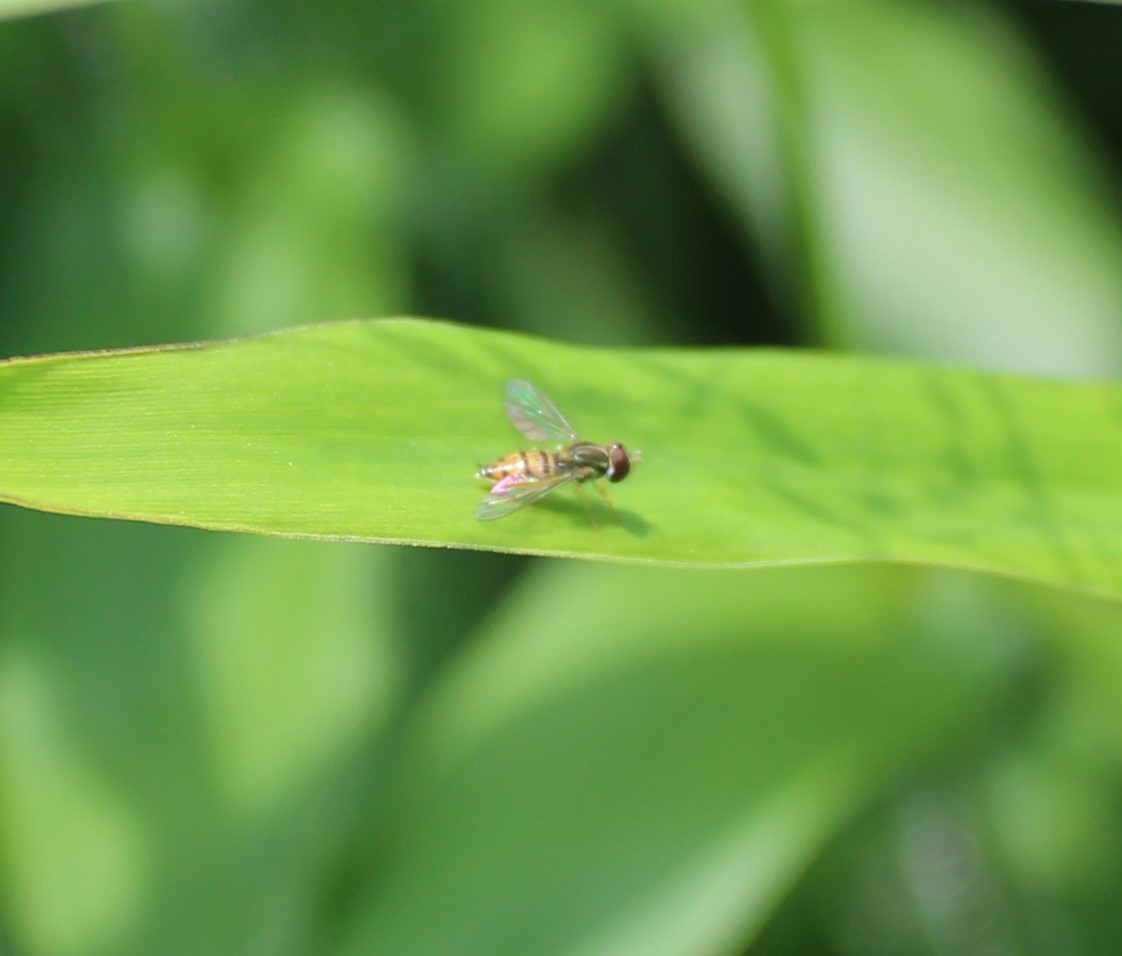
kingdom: Animalia
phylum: Arthropoda
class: Insecta
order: Diptera
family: Syrphidae
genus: Toxomerus
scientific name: Toxomerus marginatus
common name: Syrphid fly
